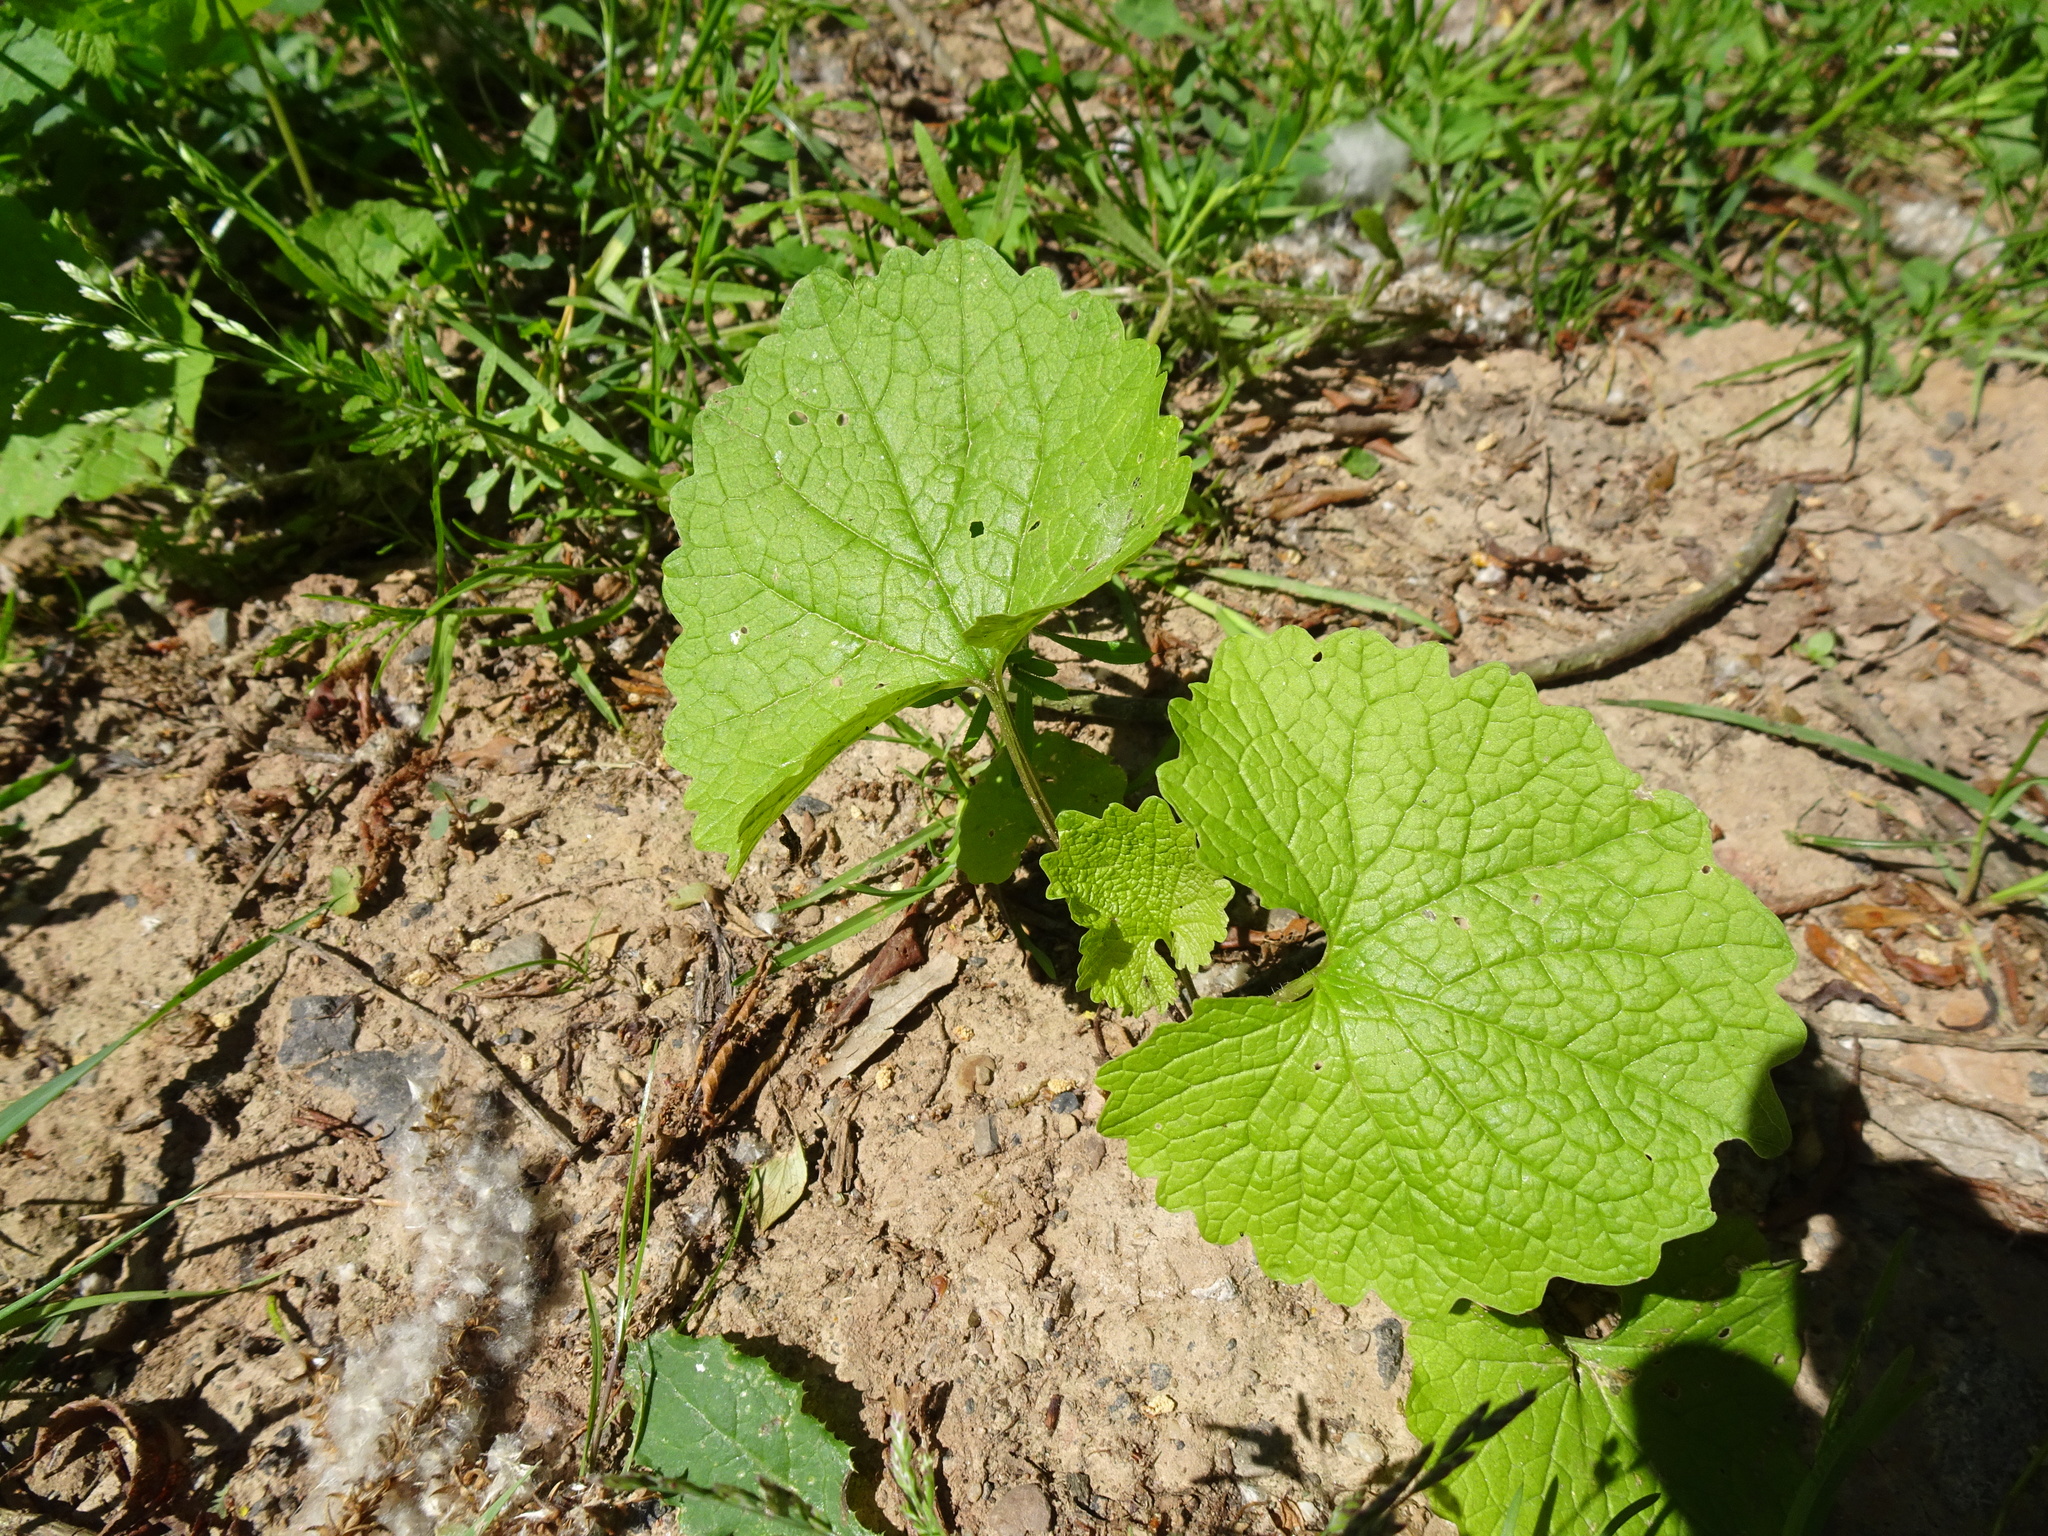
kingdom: Plantae
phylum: Tracheophyta
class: Magnoliopsida
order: Brassicales
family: Brassicaceae
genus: Alliaria
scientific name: Alliaria petiolata
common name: Garlic mustard
